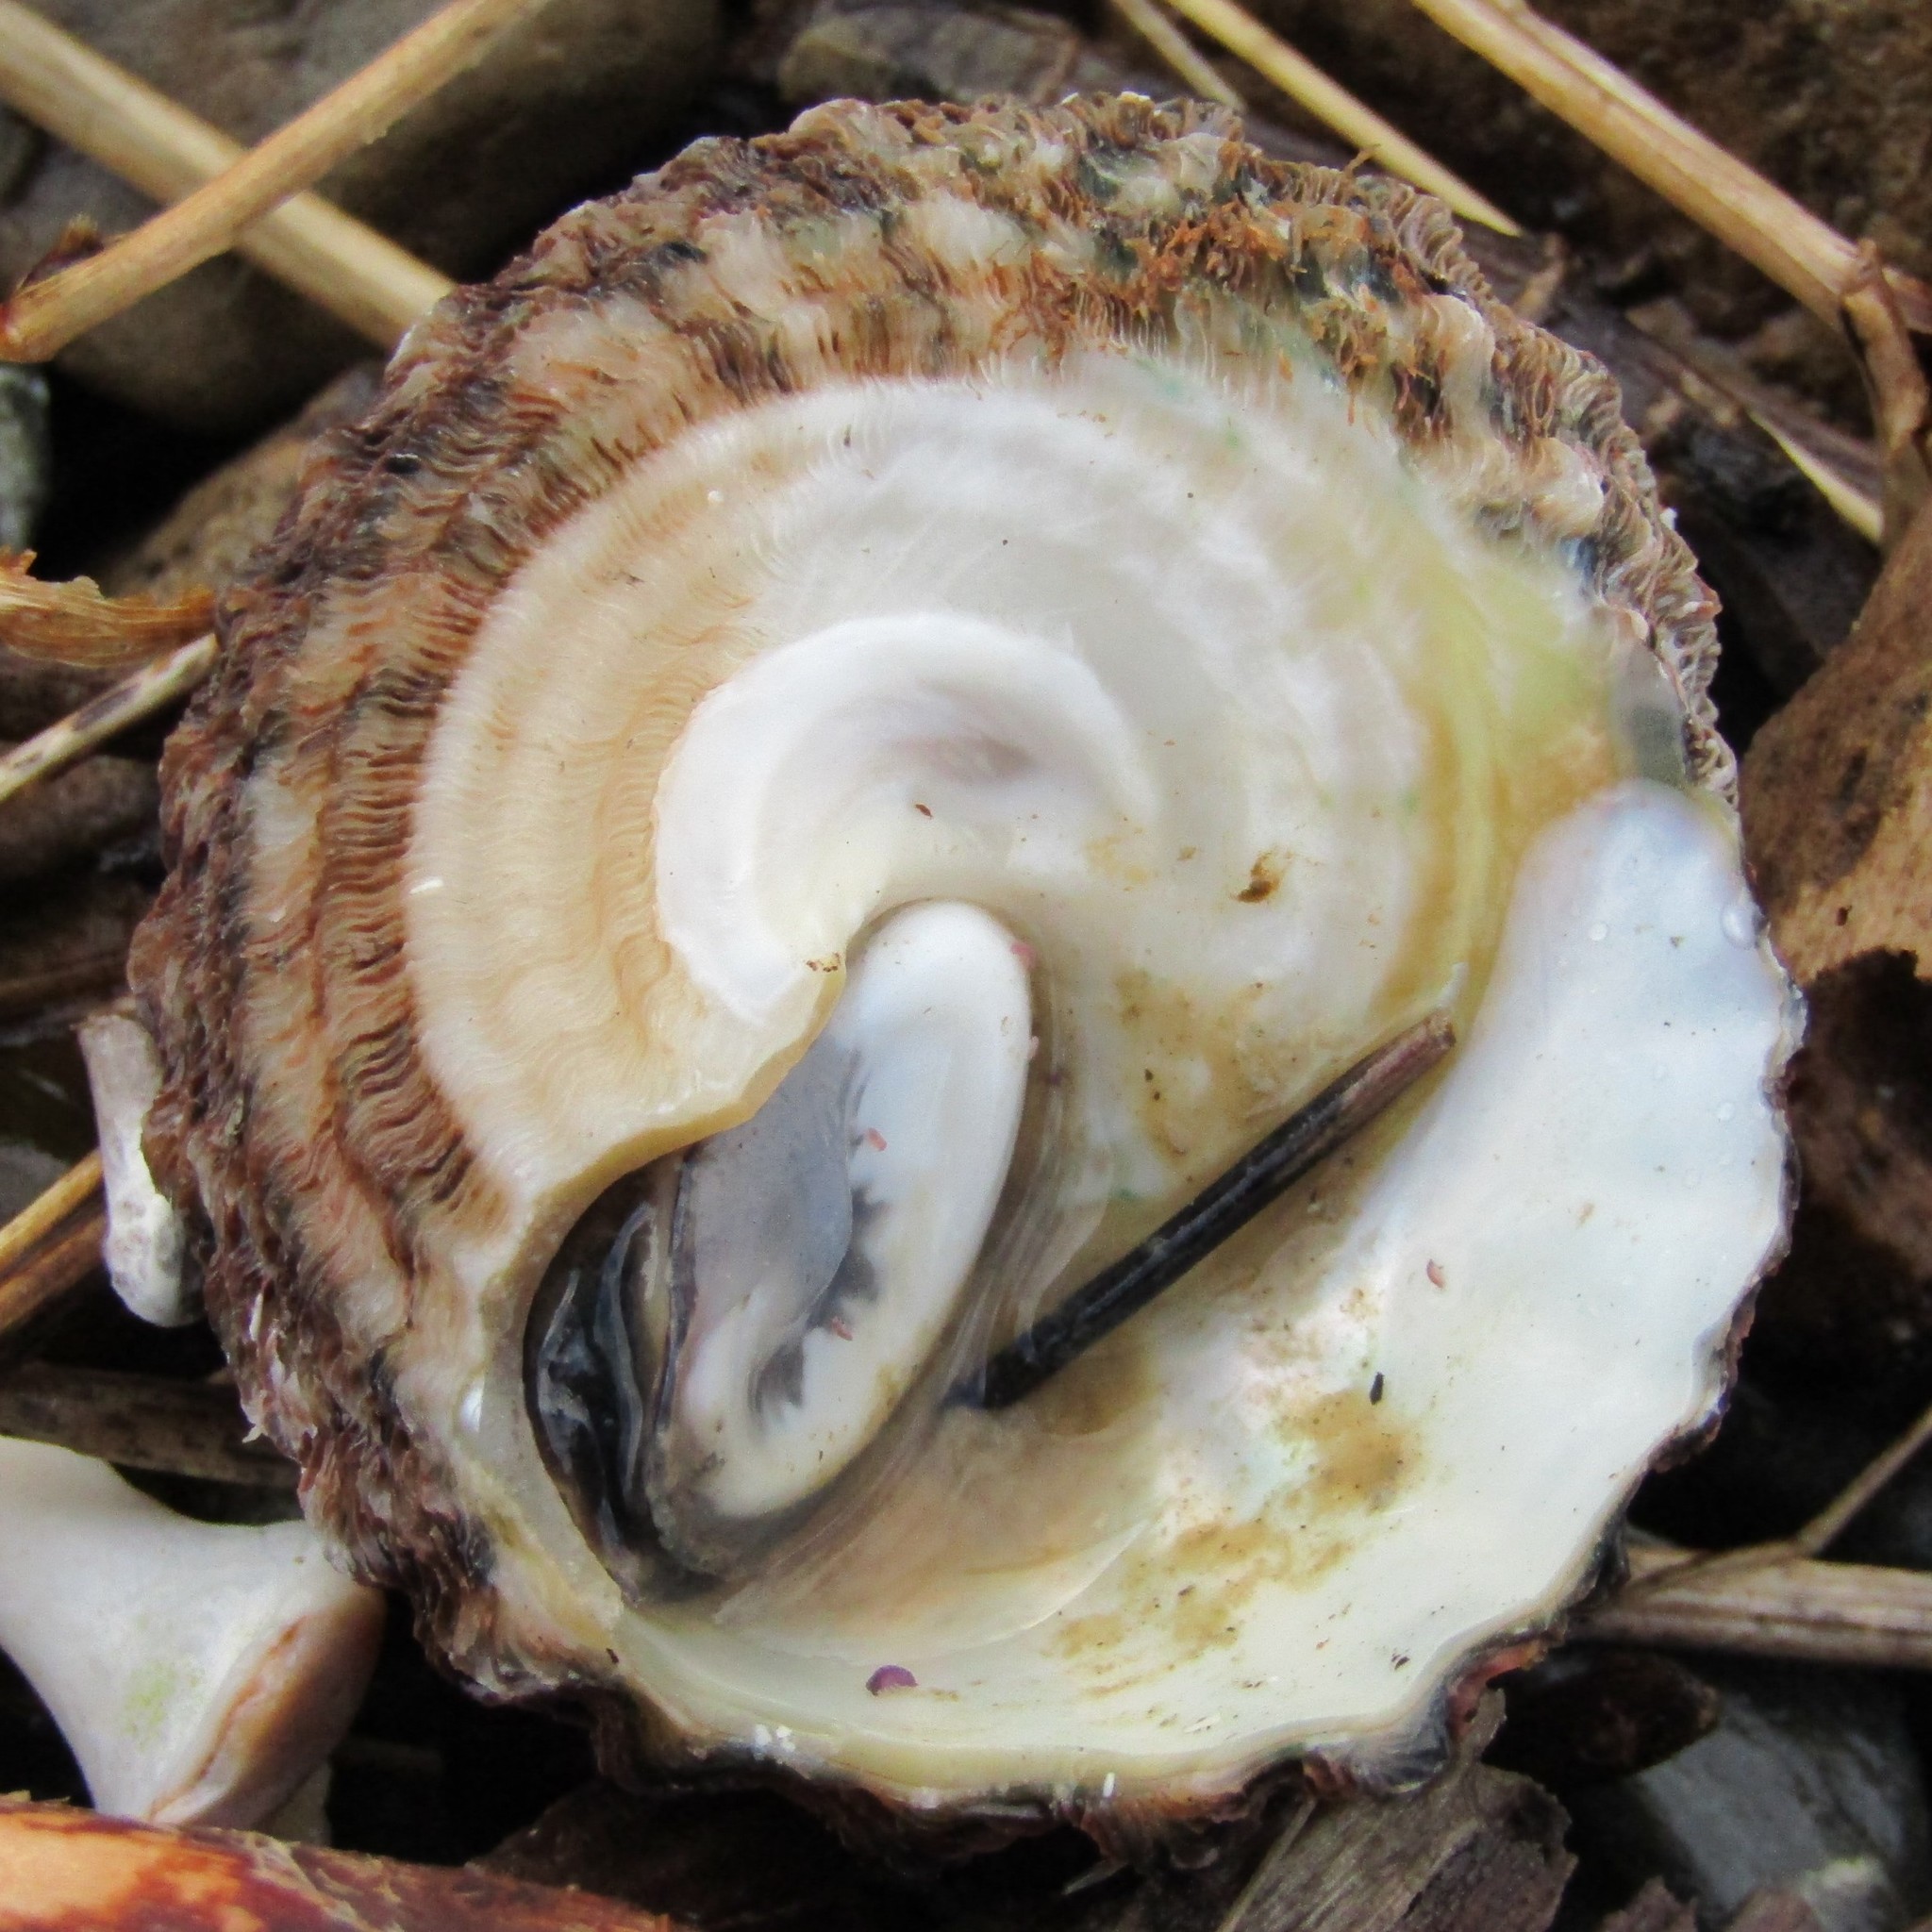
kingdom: Animalia
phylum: Mollusca
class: Gastropoda
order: Trochida
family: Turbinidae
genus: Cookia
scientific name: Cookia sulcata
